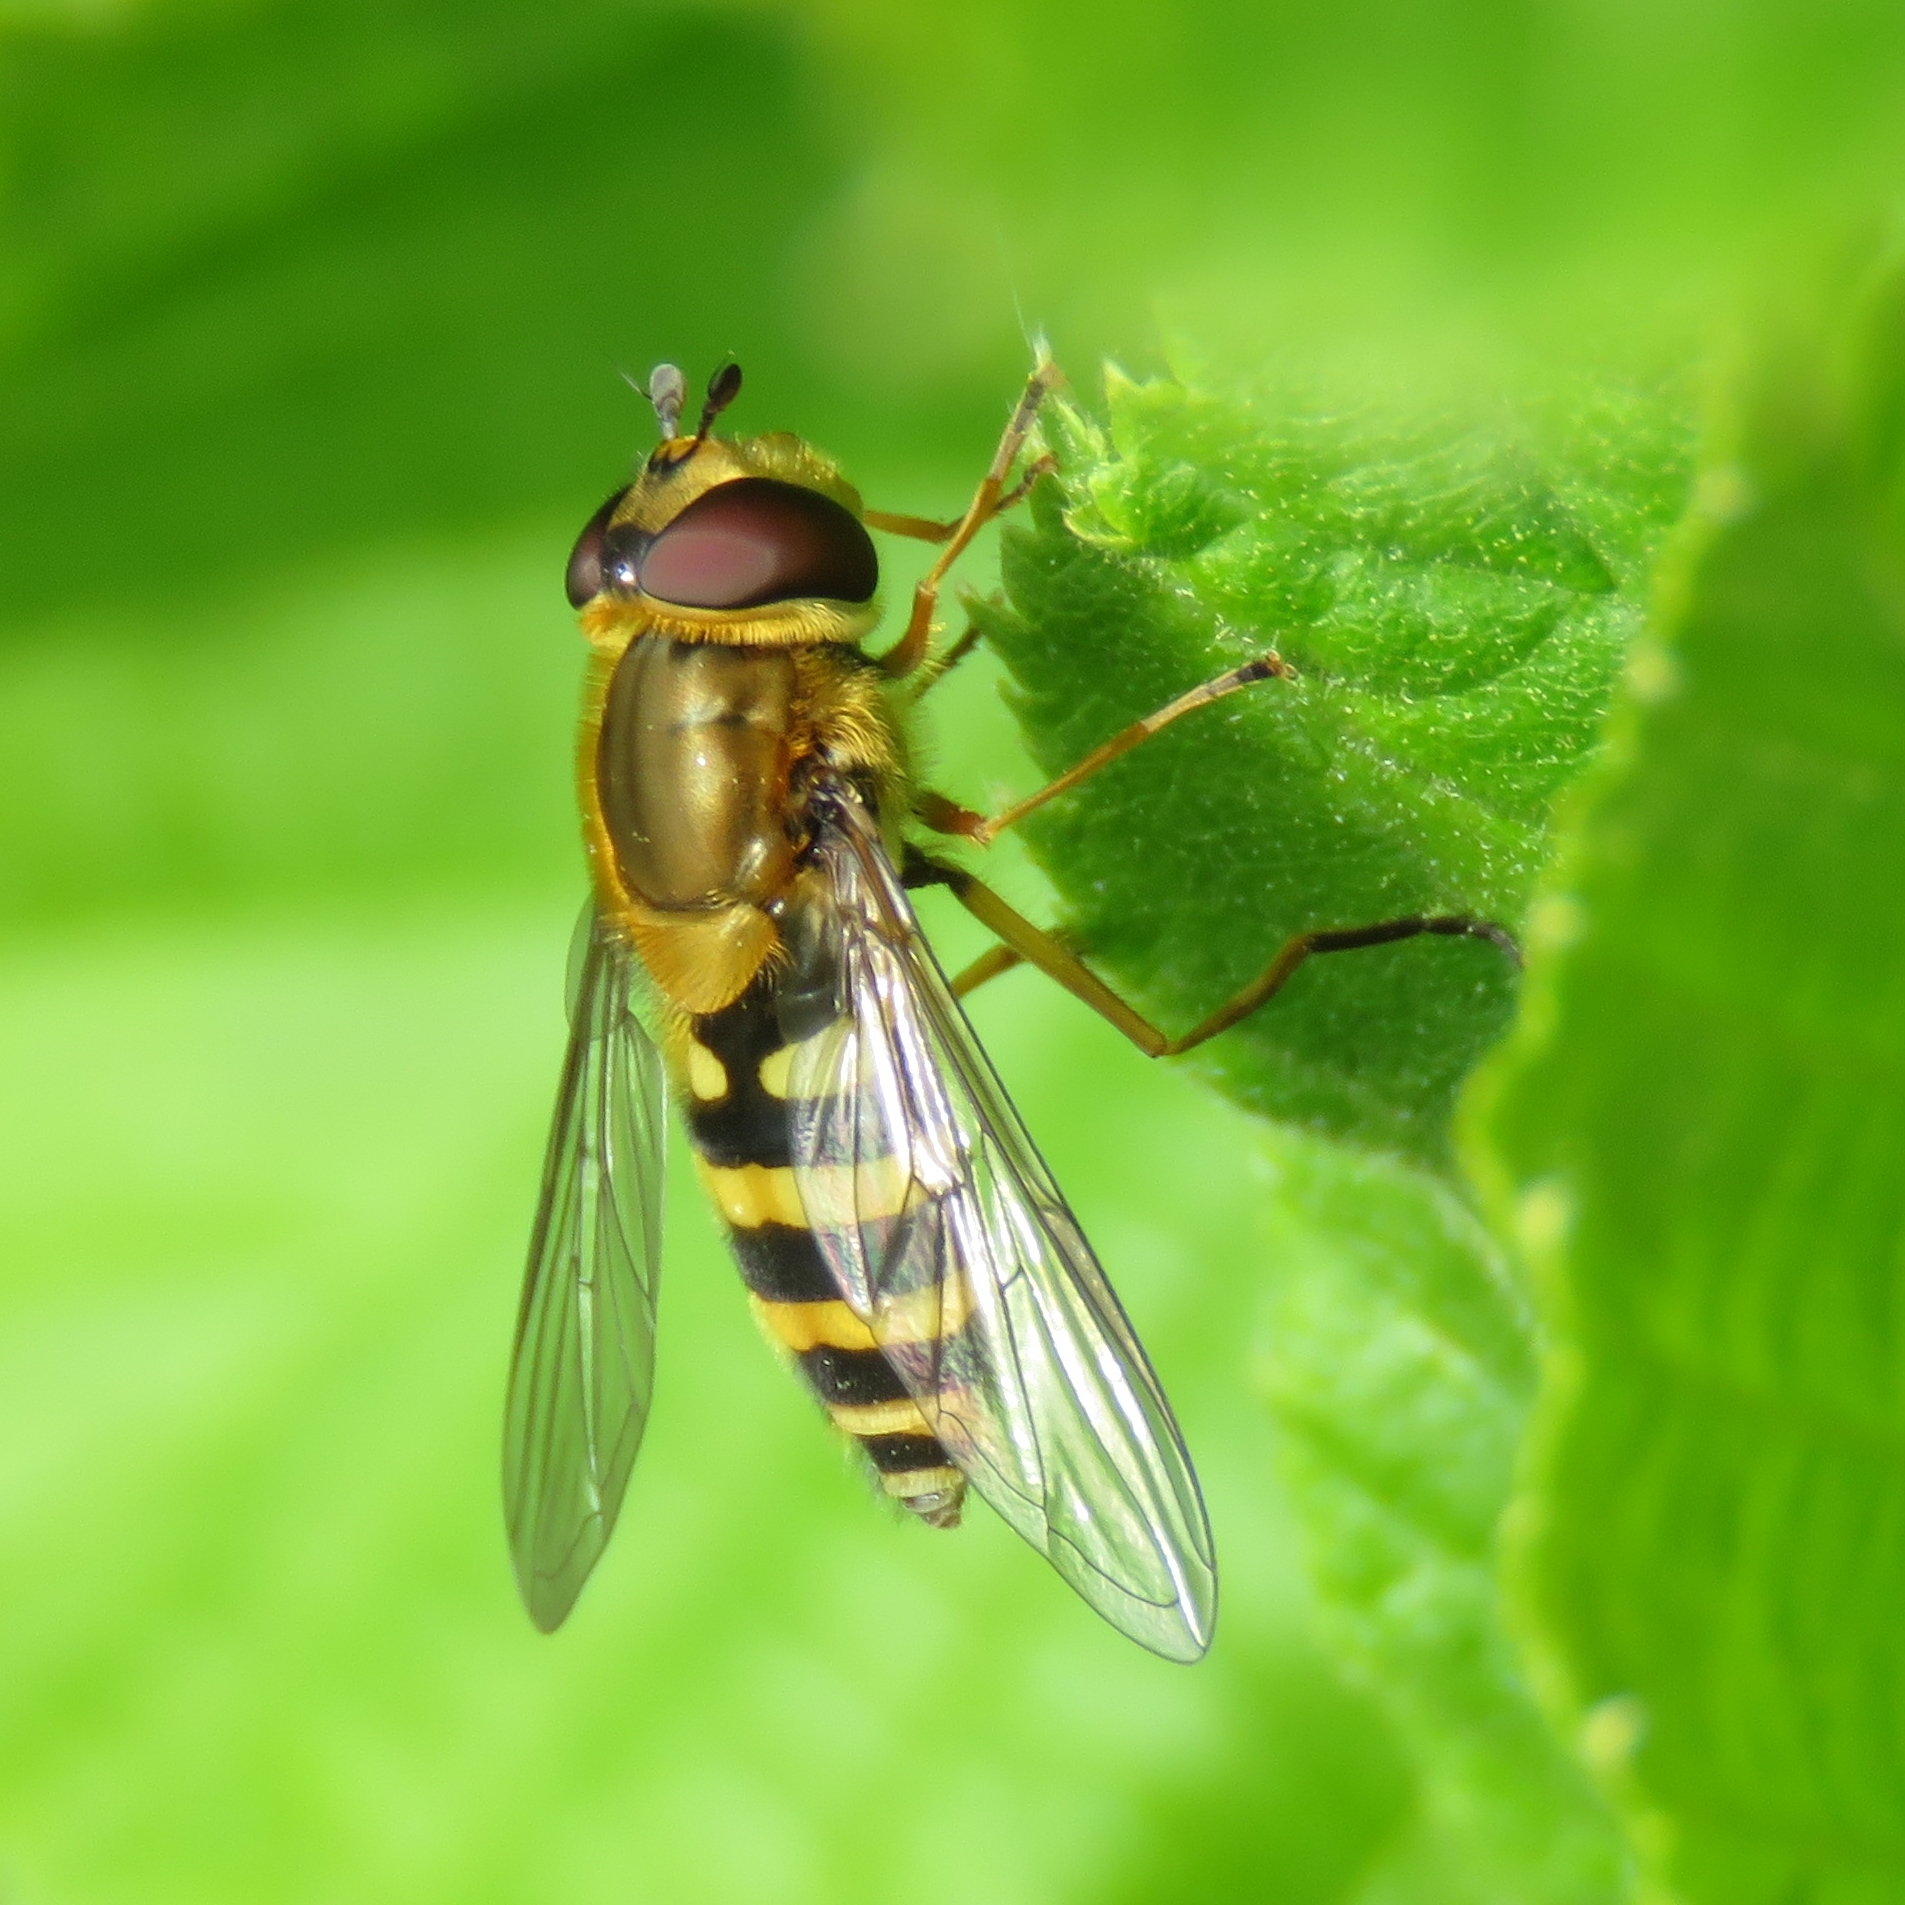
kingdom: Animalia
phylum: Arthropoda
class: Insecta
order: Diptera
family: Syrphidae
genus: Syrphus
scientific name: Syrphus ribesii
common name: Common flower fly
